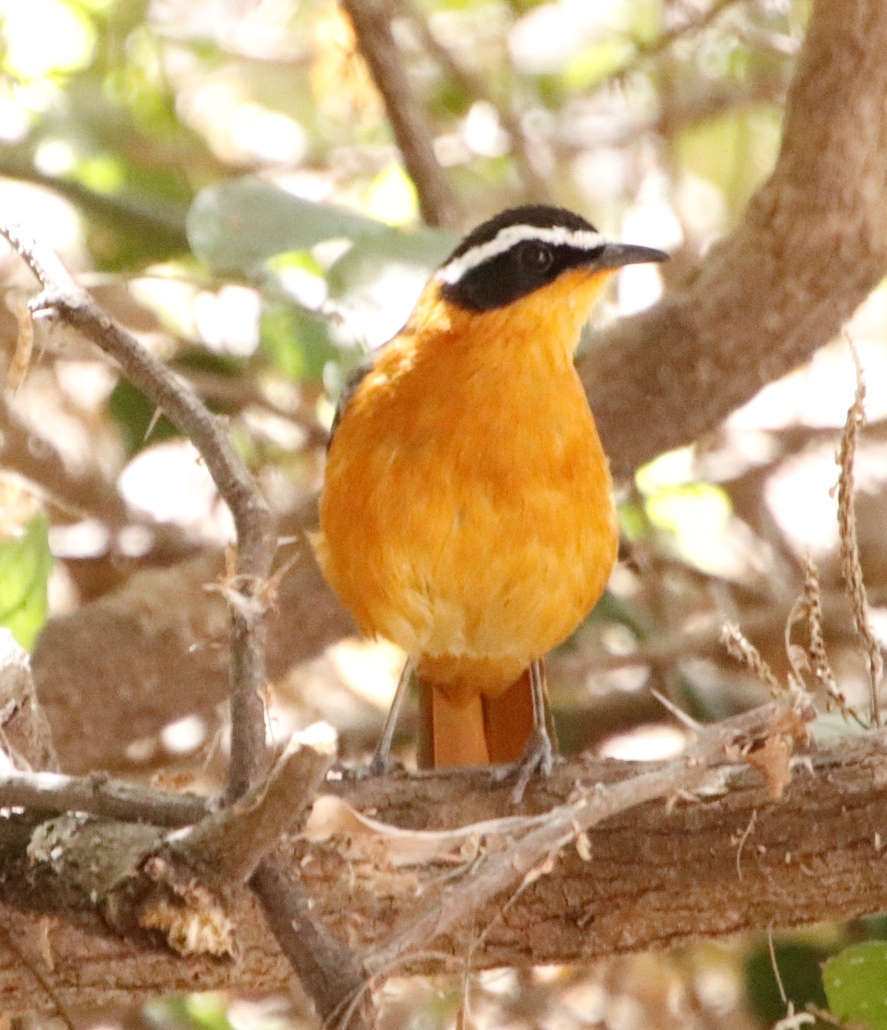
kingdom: Animalia
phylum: Chordata
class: Aves
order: Passeriformes
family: Muscicapidae
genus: Cossypha
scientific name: Cossypha heuglini
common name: White-browed robin-chat
